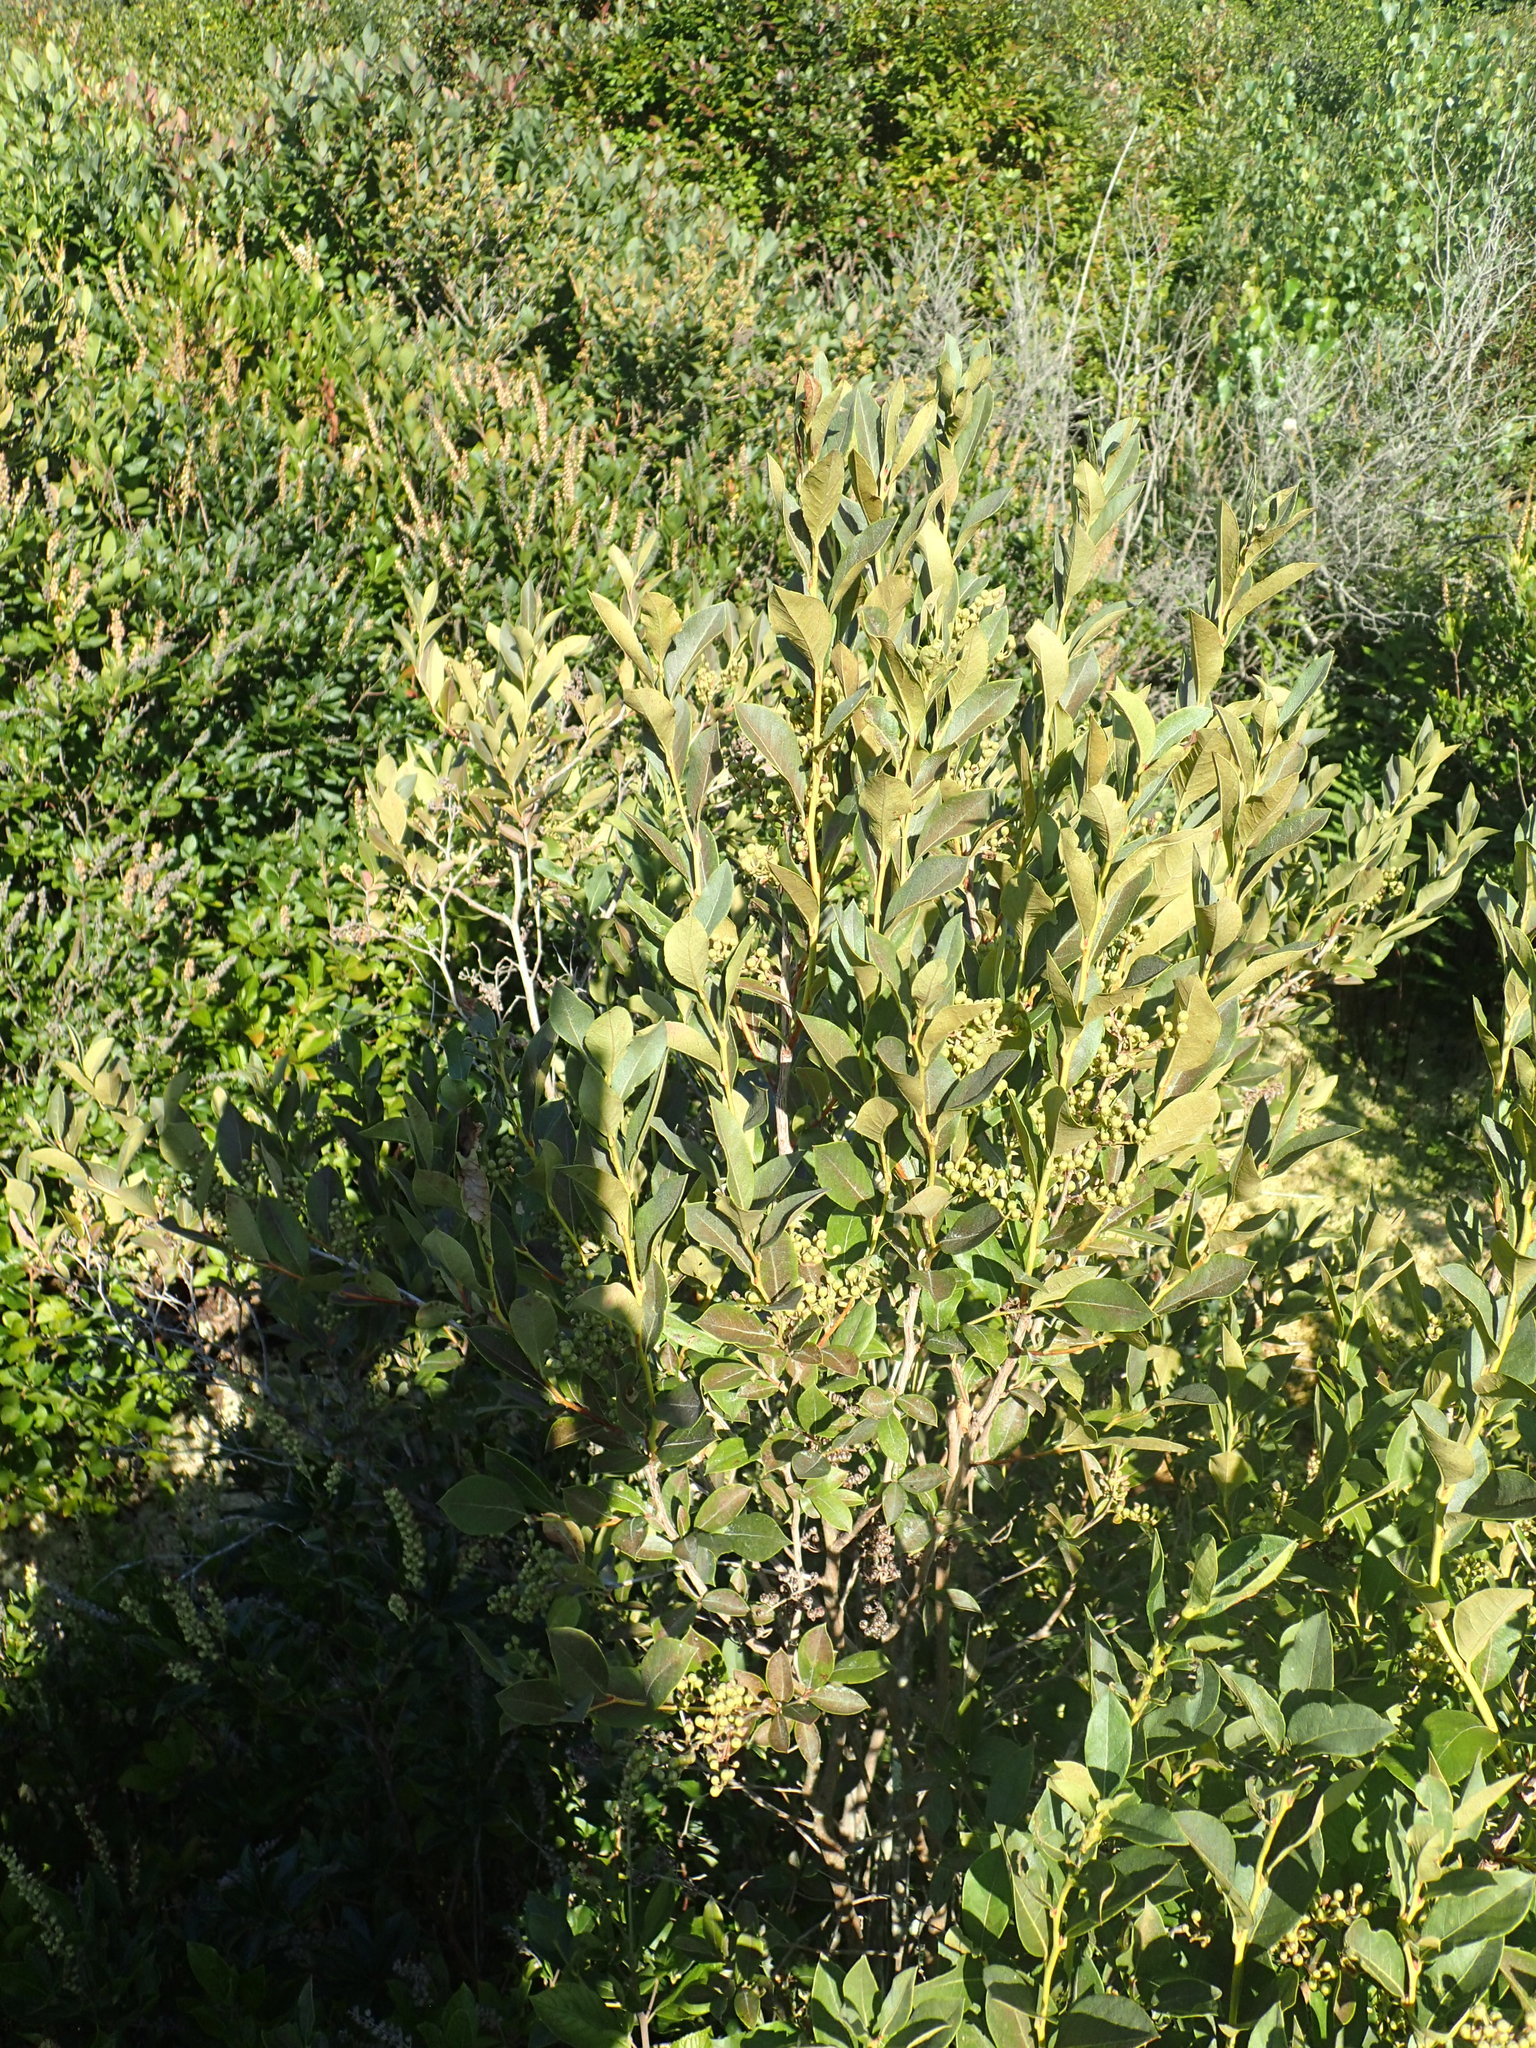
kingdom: Plantae
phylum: Tracheophyta
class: Magnoliopsida
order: Ericales
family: Ericaceae
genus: Lyonia
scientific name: Lyonia ligustrina
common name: Maleberry
